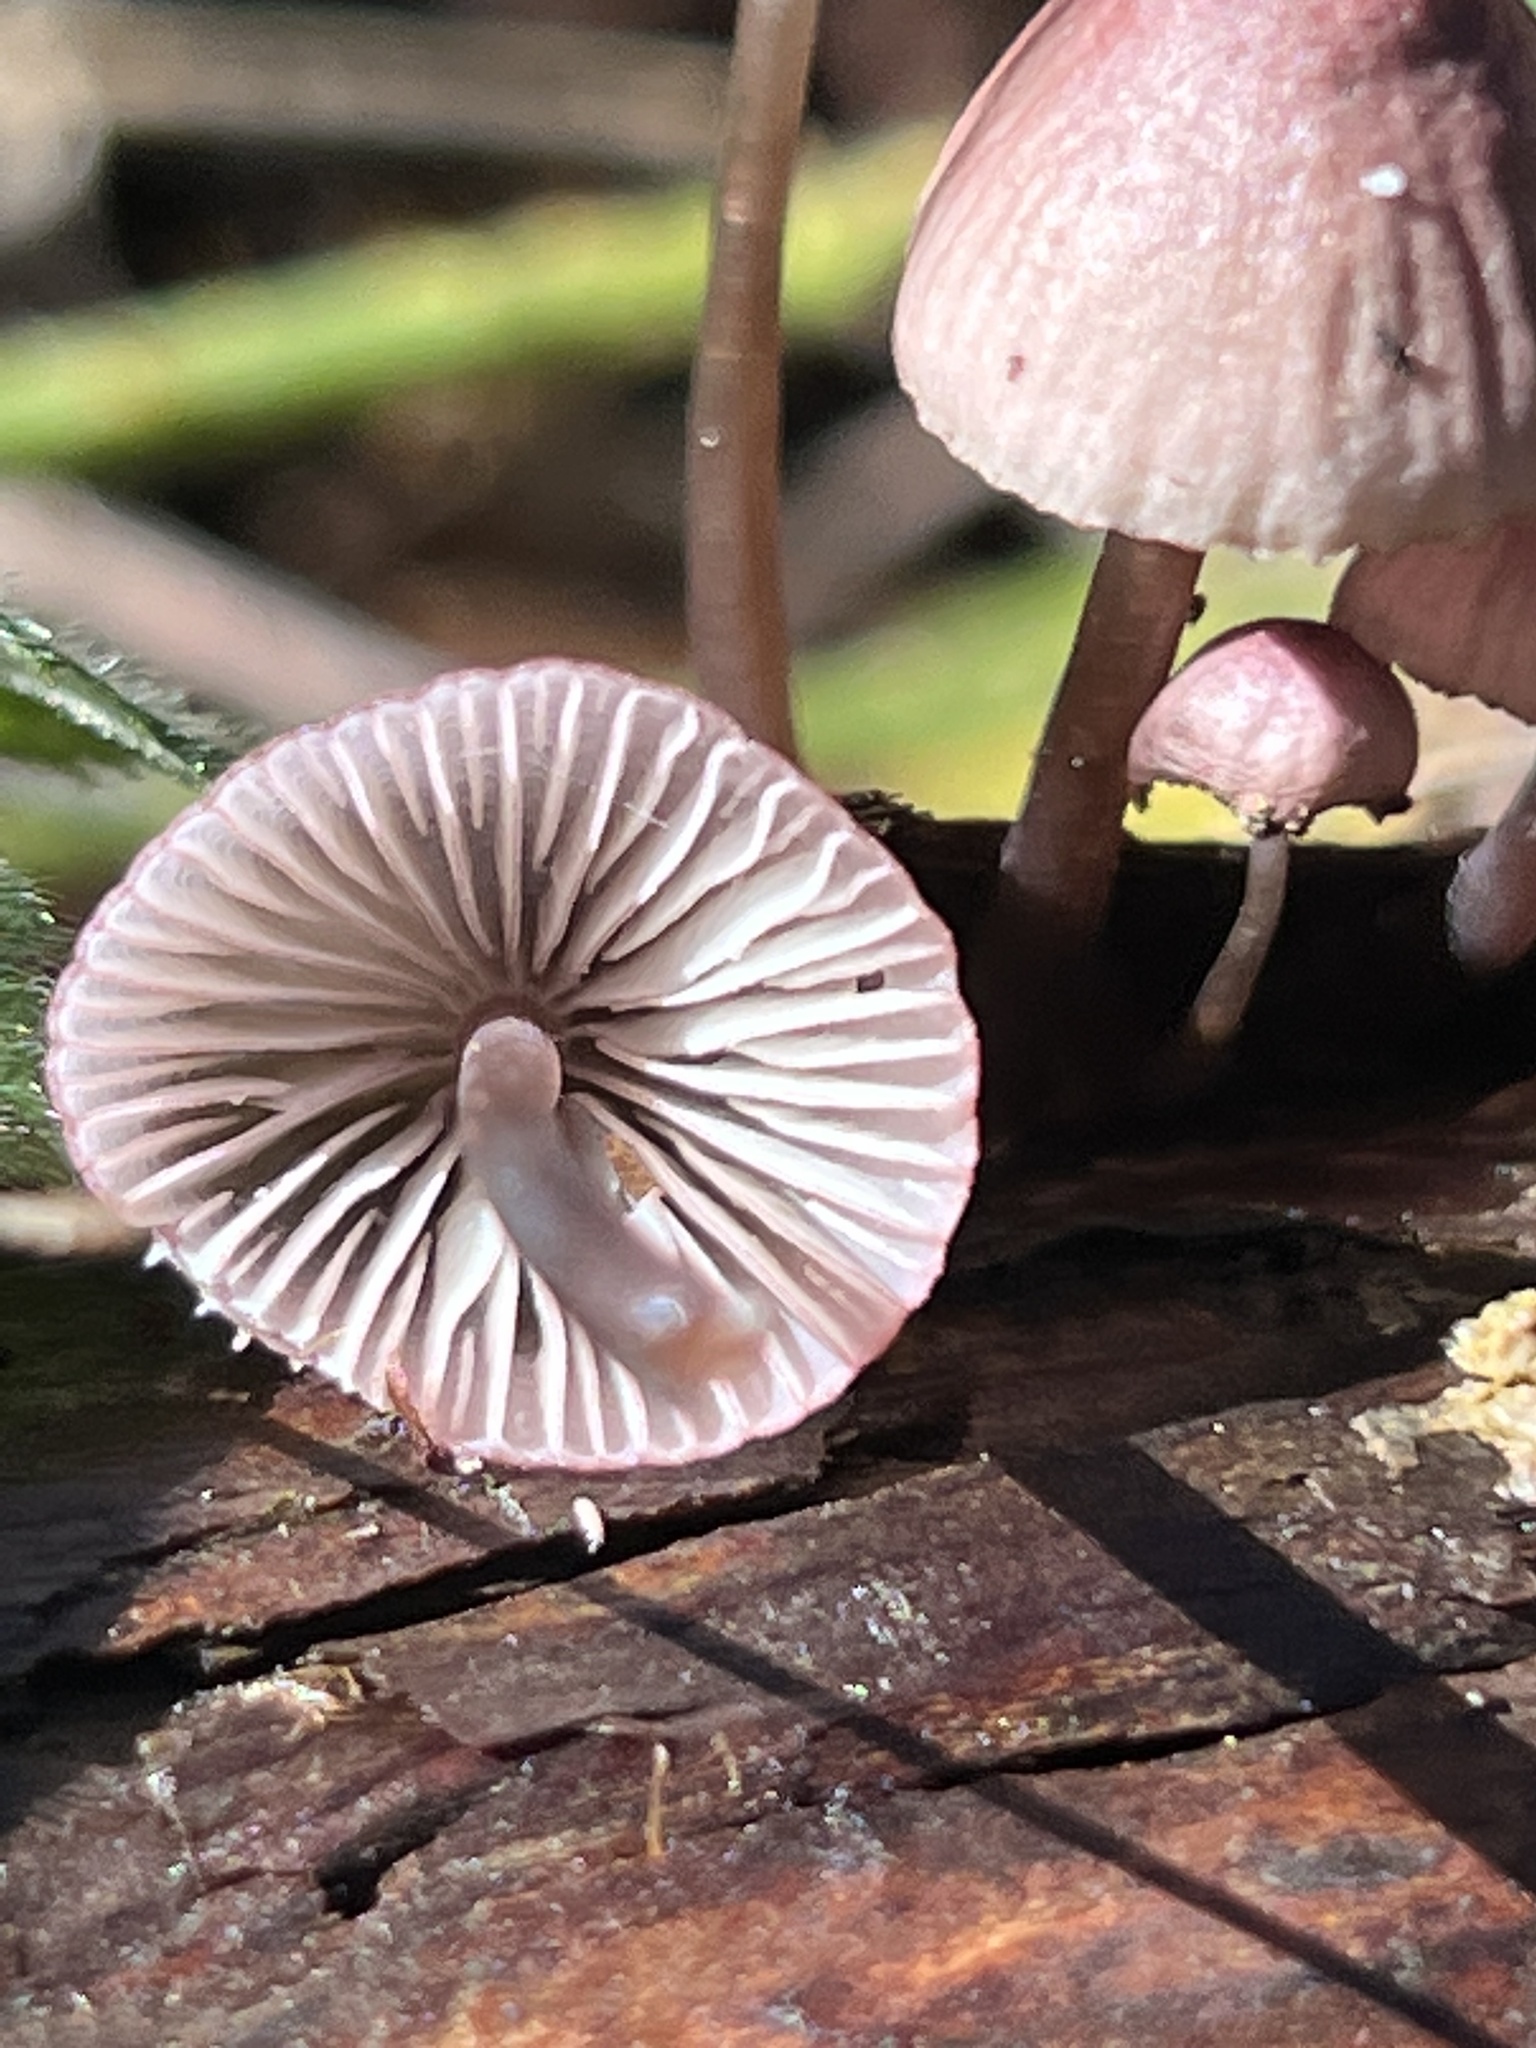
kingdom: Fungi
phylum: Basidiomycota
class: Agaricomycetes
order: Agaricales
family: Mycenaceae
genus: Mycena
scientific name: Mycena purpureofusca
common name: Purple edge bonnet
